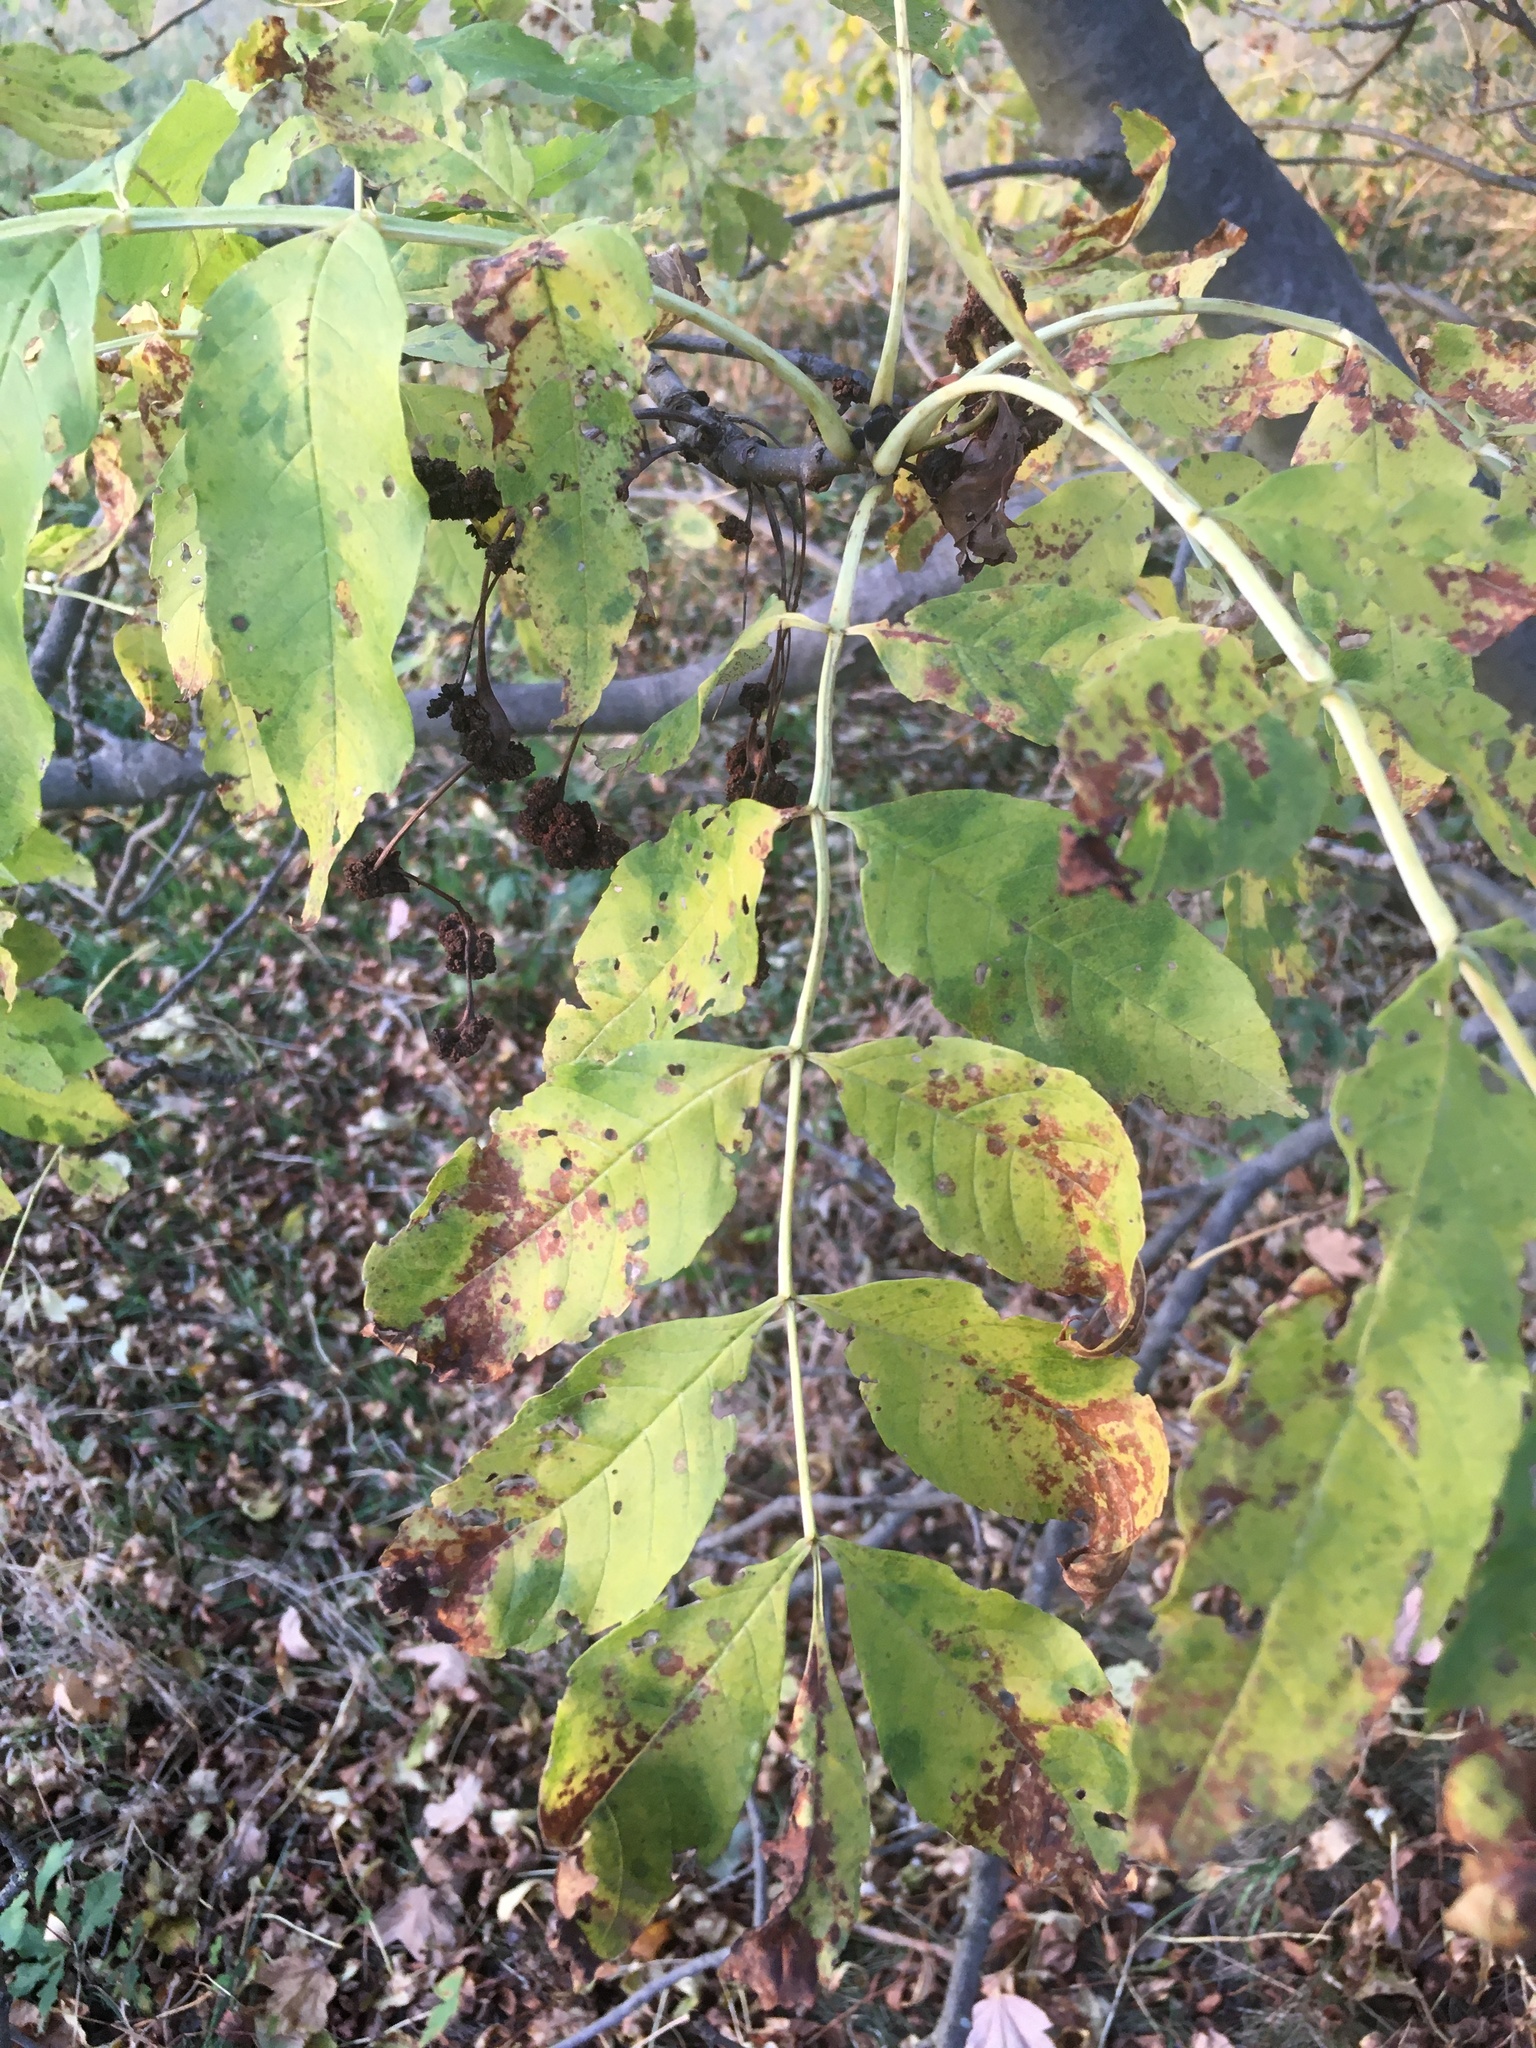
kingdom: Plantae
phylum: Tracheophyta
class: Magnoliopsida
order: Lamiales
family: Oleaceae
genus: Fraxinus
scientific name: Fraxinus excelsior
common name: European ash
